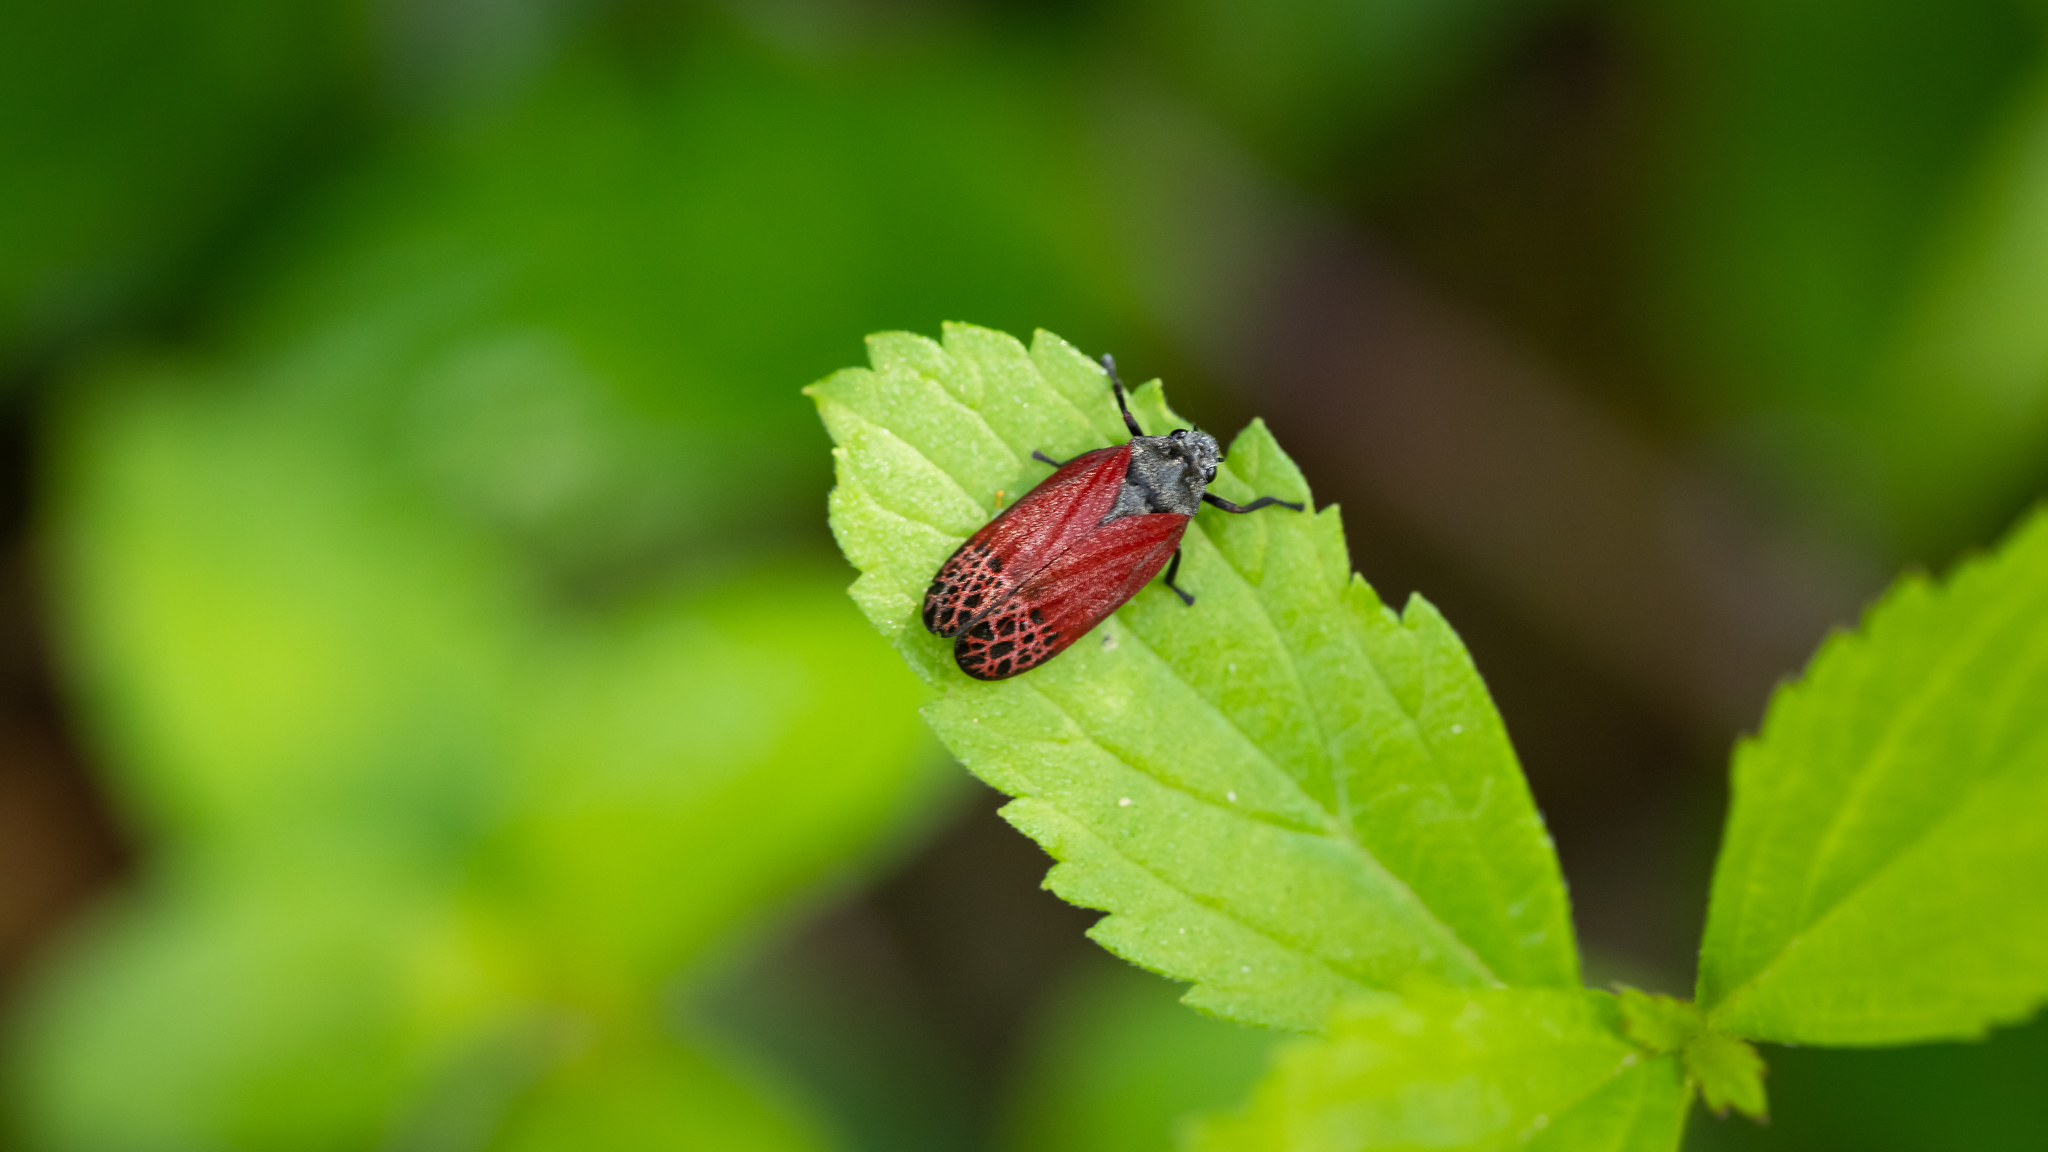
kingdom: Animalia
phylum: Arthropoda
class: Insecta
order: Hemiptera
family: Cercopidae
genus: Mahanarva
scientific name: Mahanarva rubripennis
